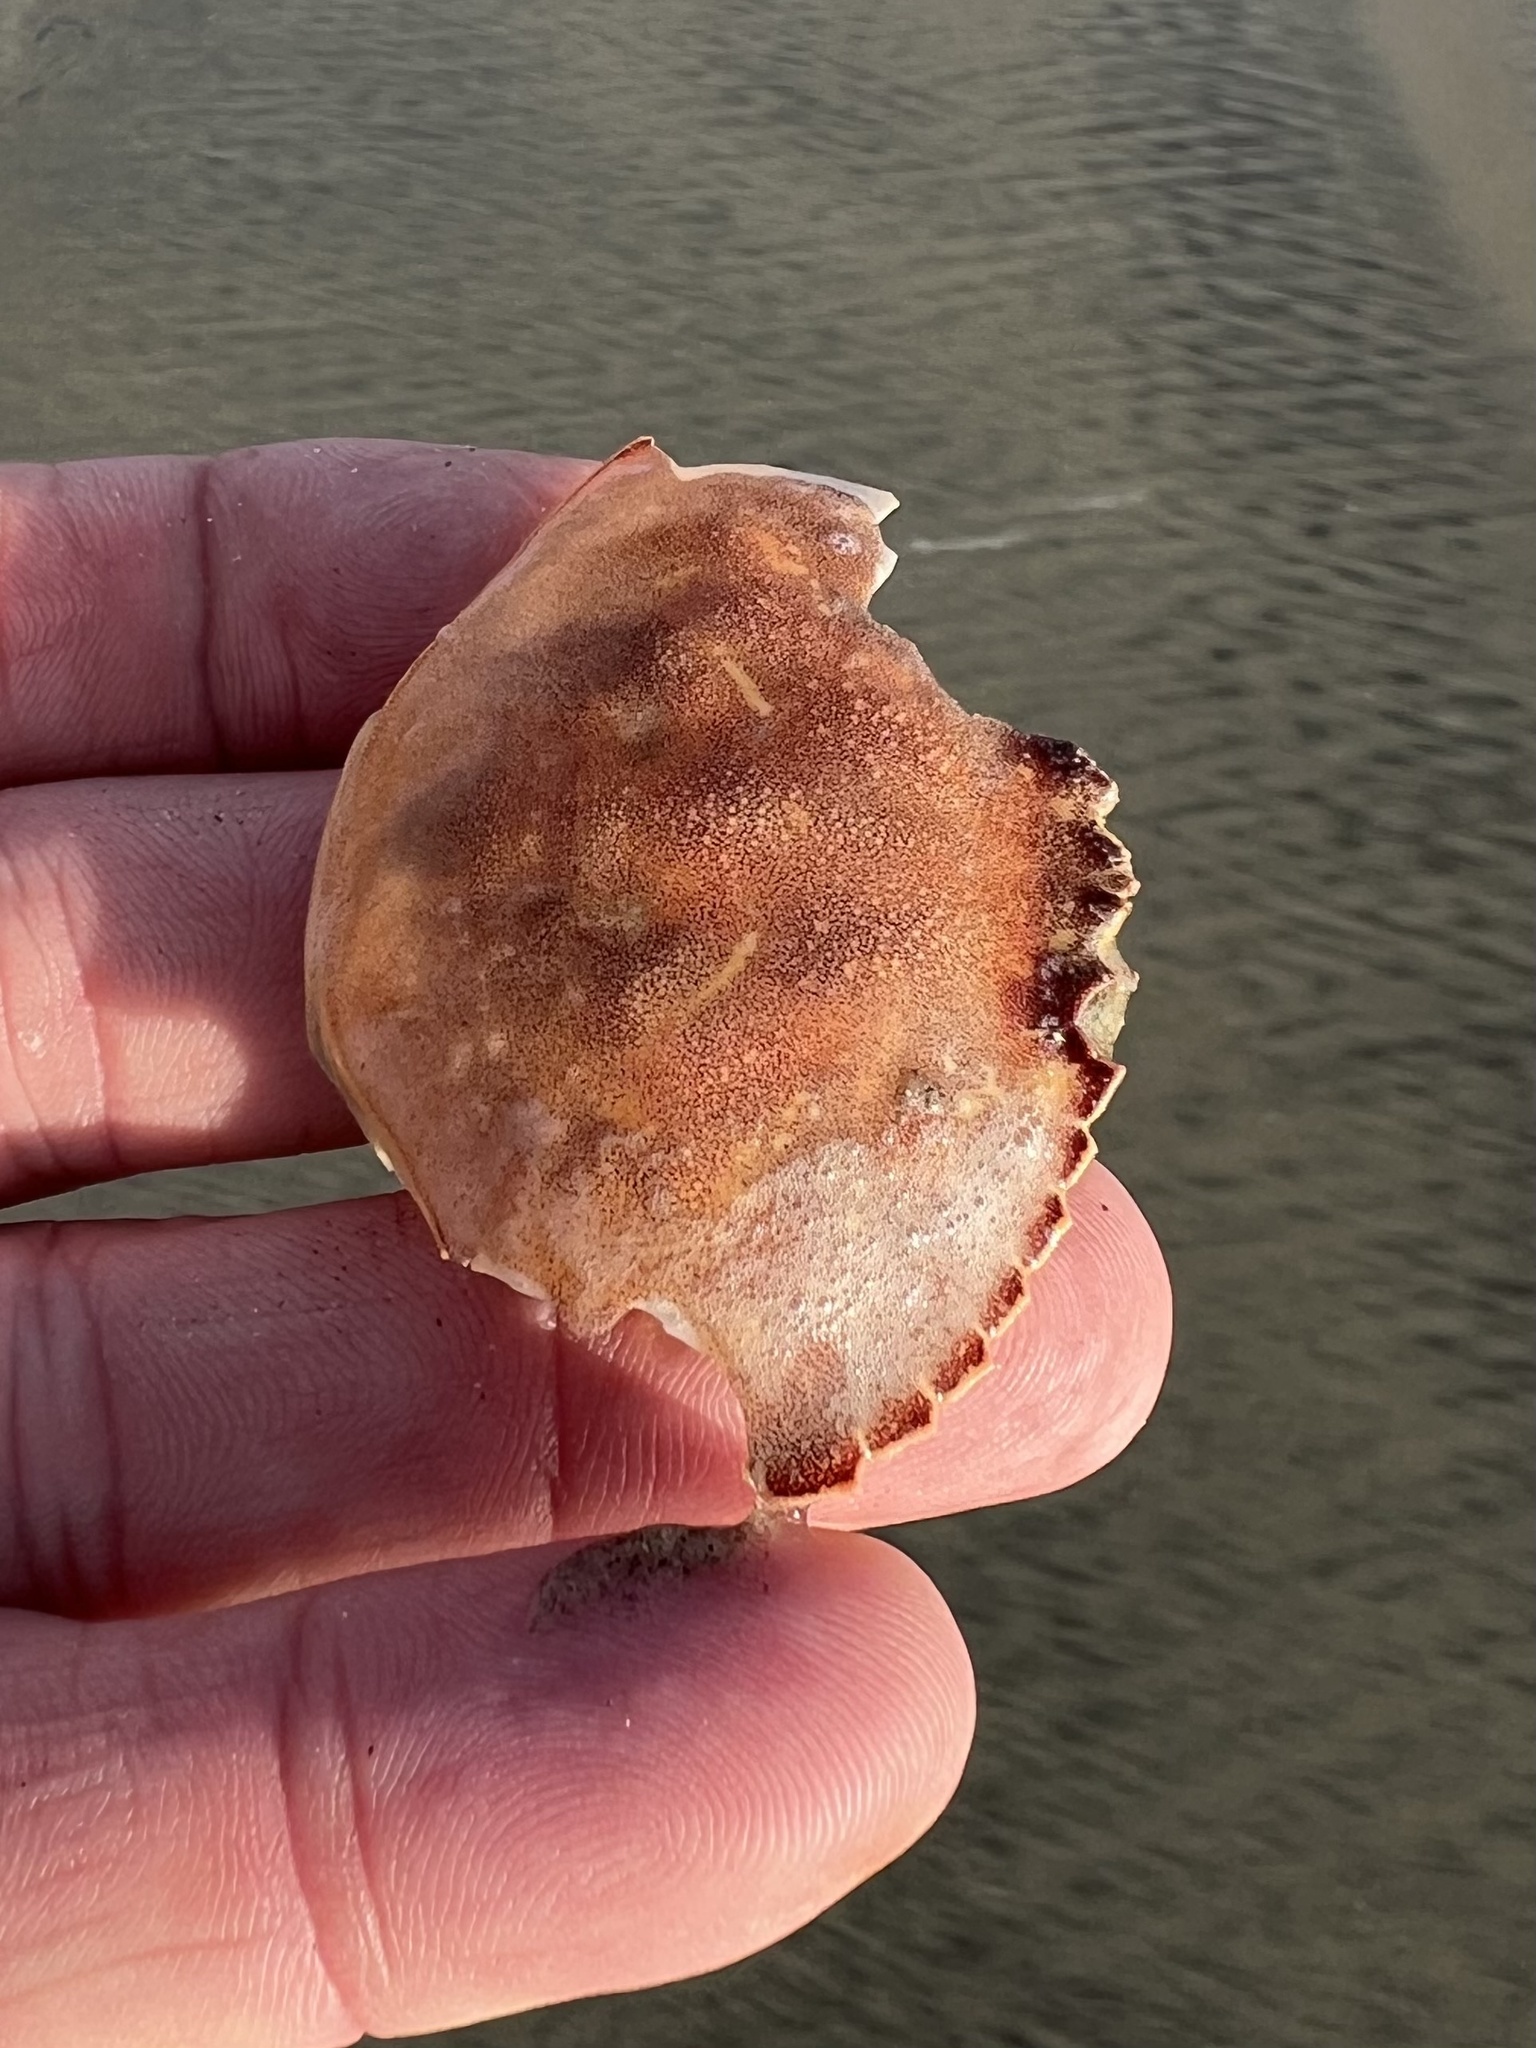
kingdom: Animalia
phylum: Arthropoda
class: Malacostraca
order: Decapoda
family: Cancridae
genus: Metacarcinus
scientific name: Metacarcinus gracilis
